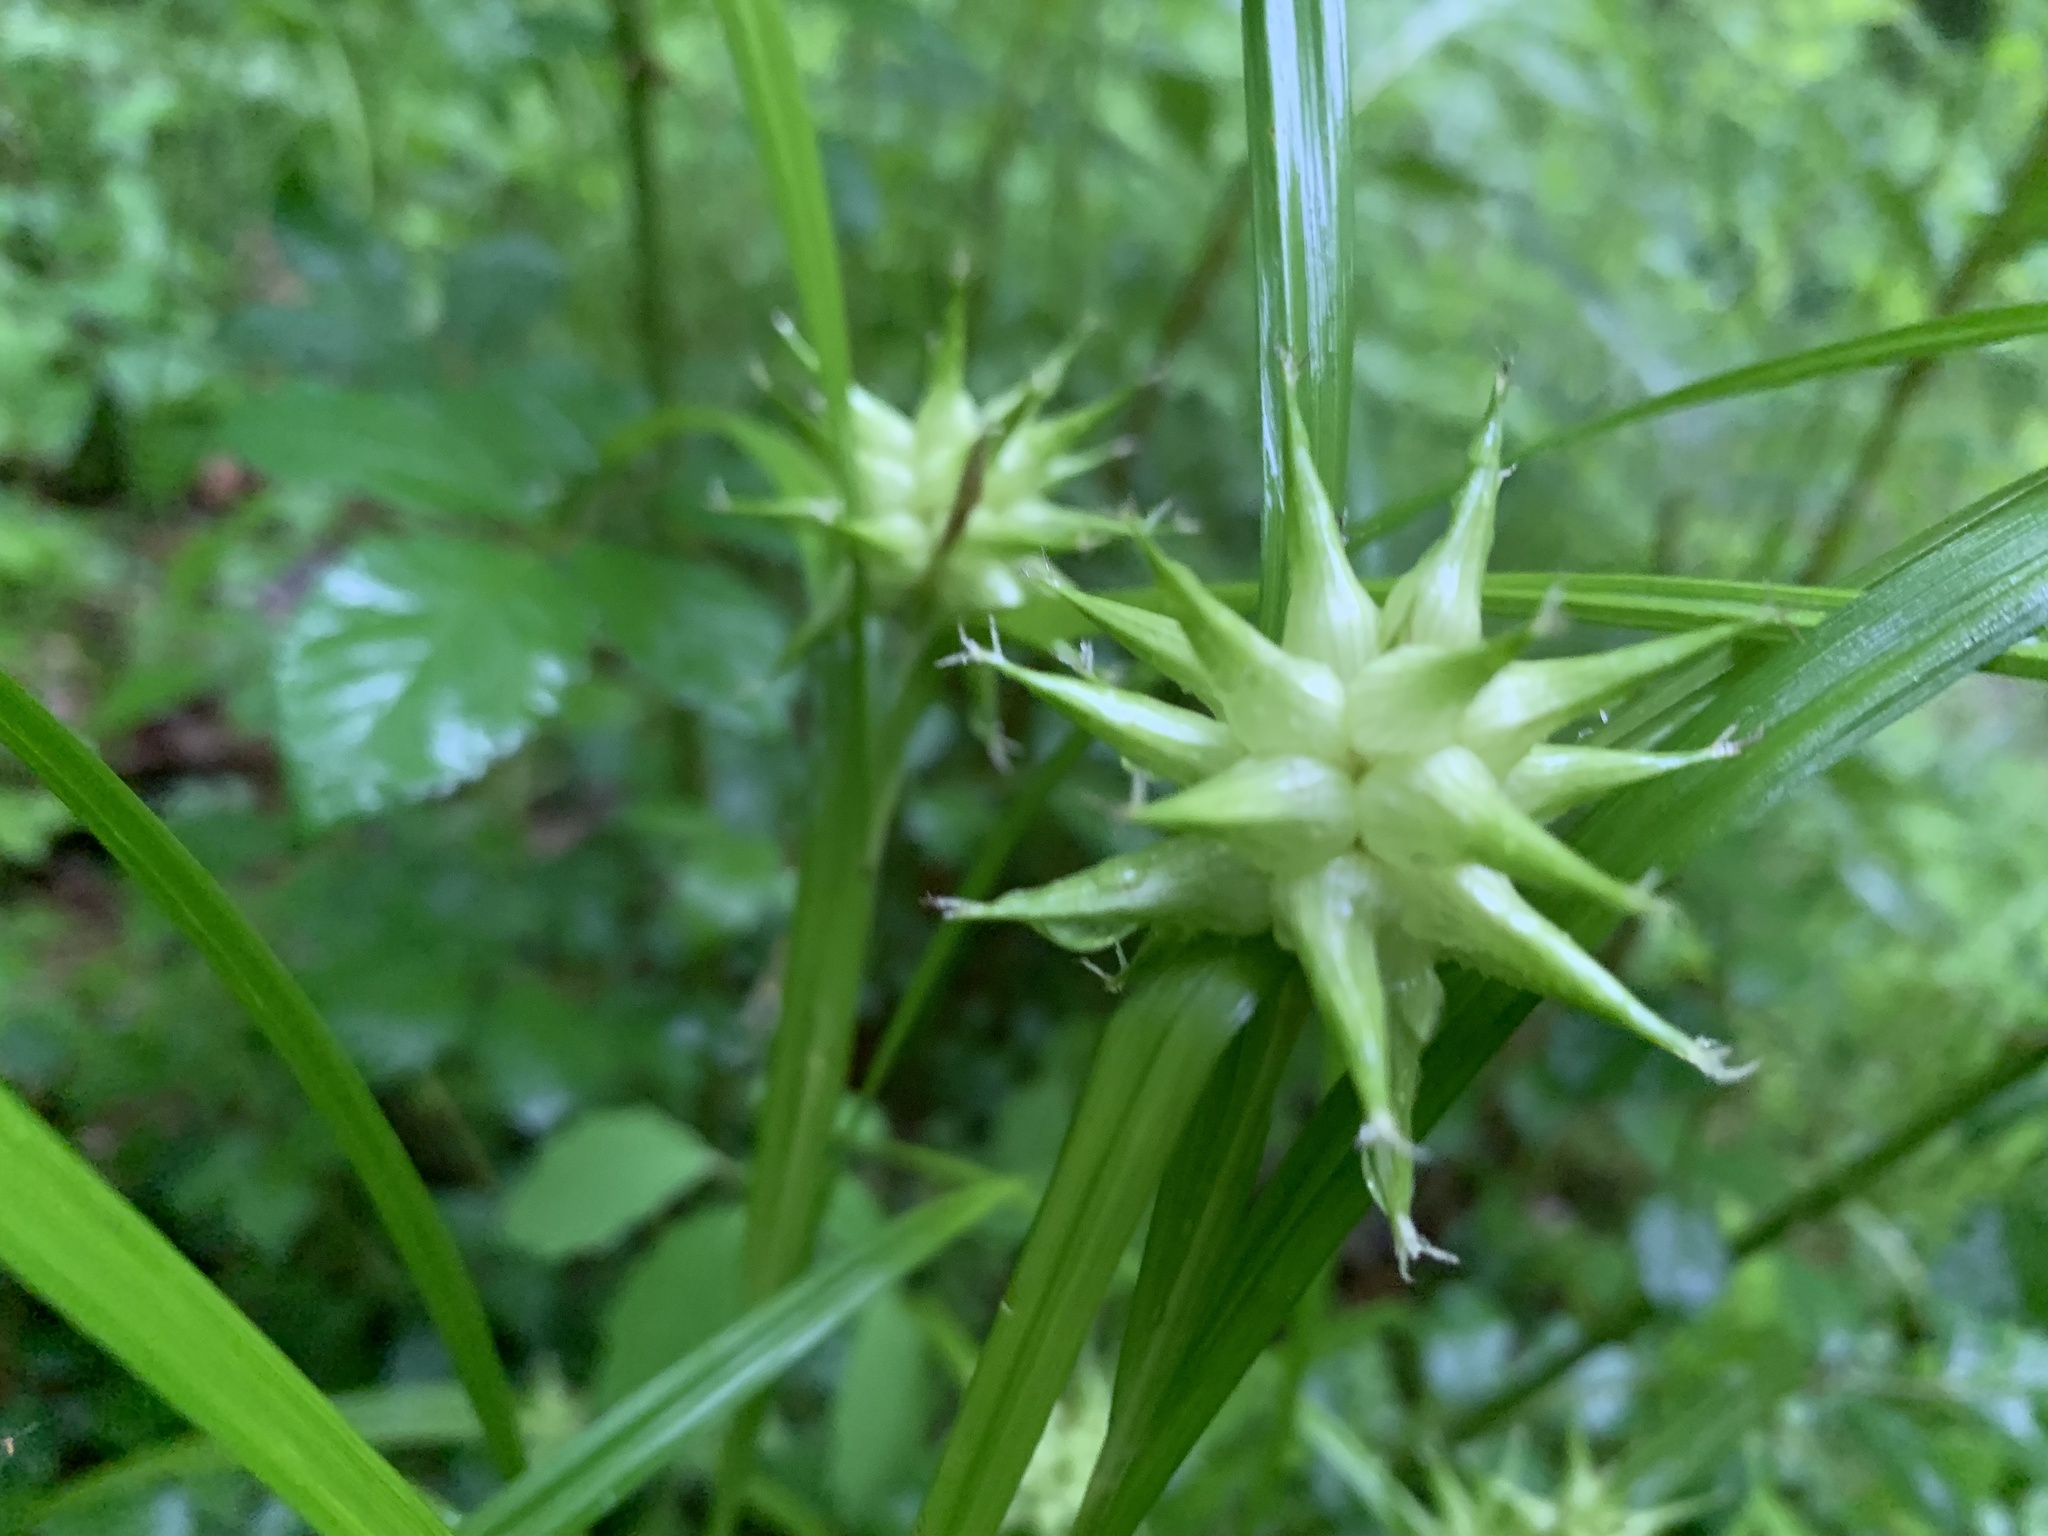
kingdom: Plantae
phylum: Tracheophyta
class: Liliopsida
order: Poales
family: Cyperaceae
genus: Carex
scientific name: Carex grayi
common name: Asa gray's sedge
